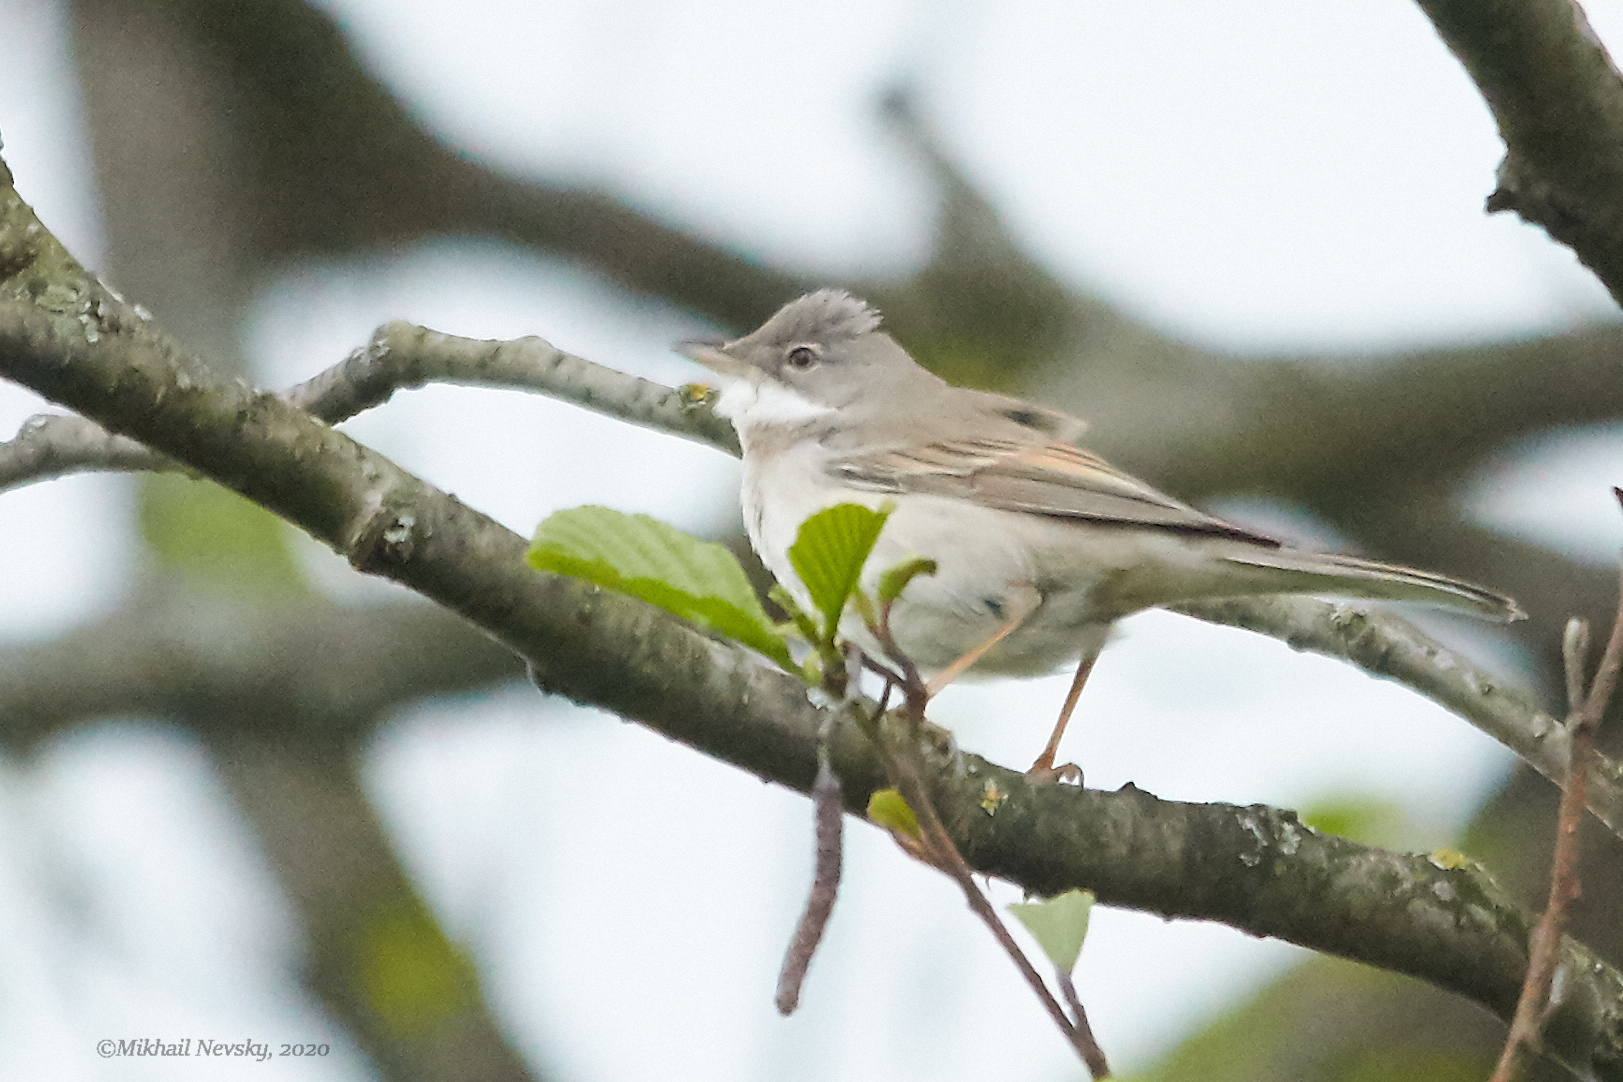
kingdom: Animalia
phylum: Chordata
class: Aves
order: Passeriformes
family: Sylviidae
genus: Sylvia
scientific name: Sylvia communis
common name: Common whitethroat
